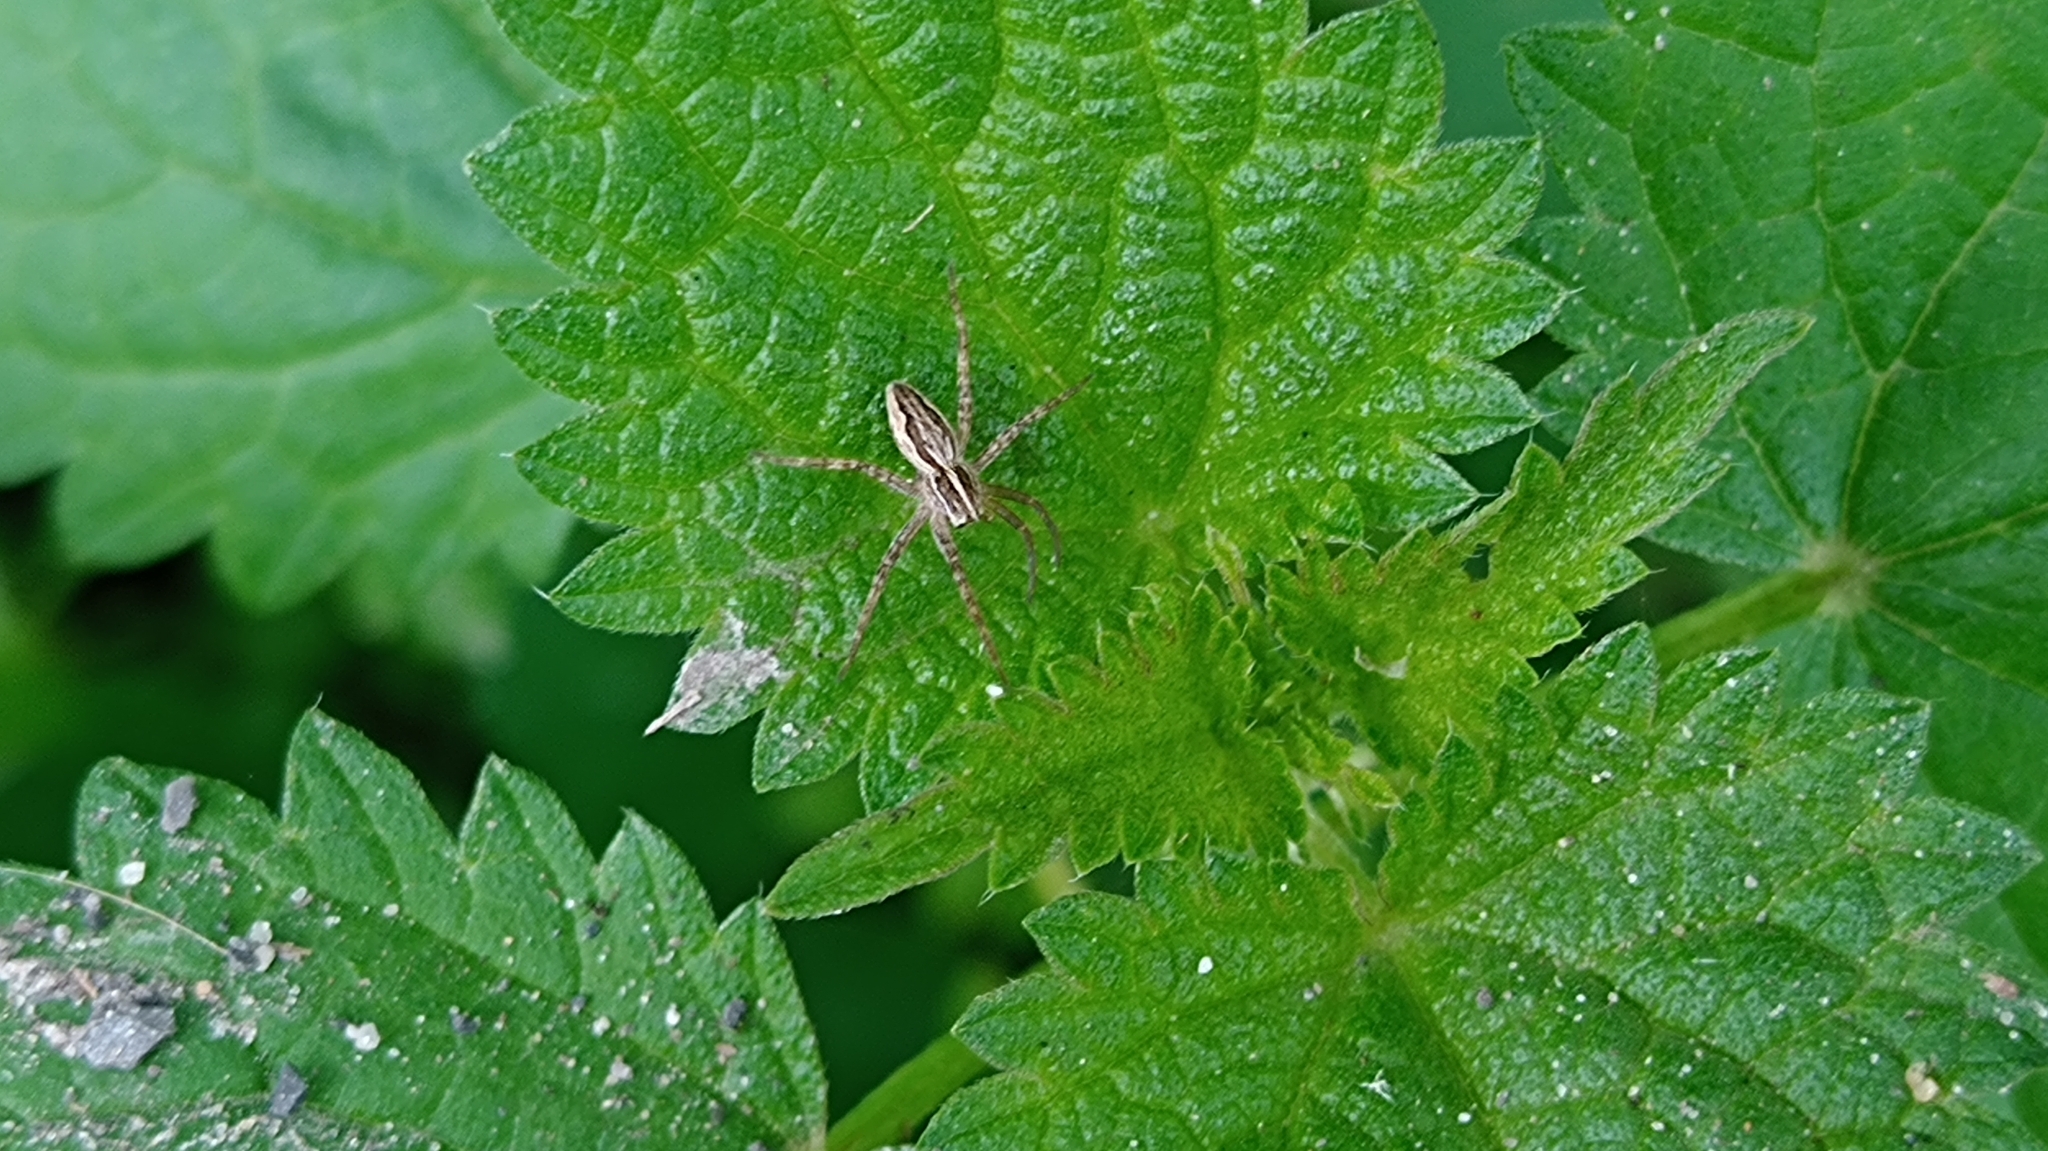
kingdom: Animalia
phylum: Arthropoda
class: Arachnida
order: Araneae
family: Pisauridae
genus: Pisaura
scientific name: Pisaura mirabilis
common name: Tent spider
